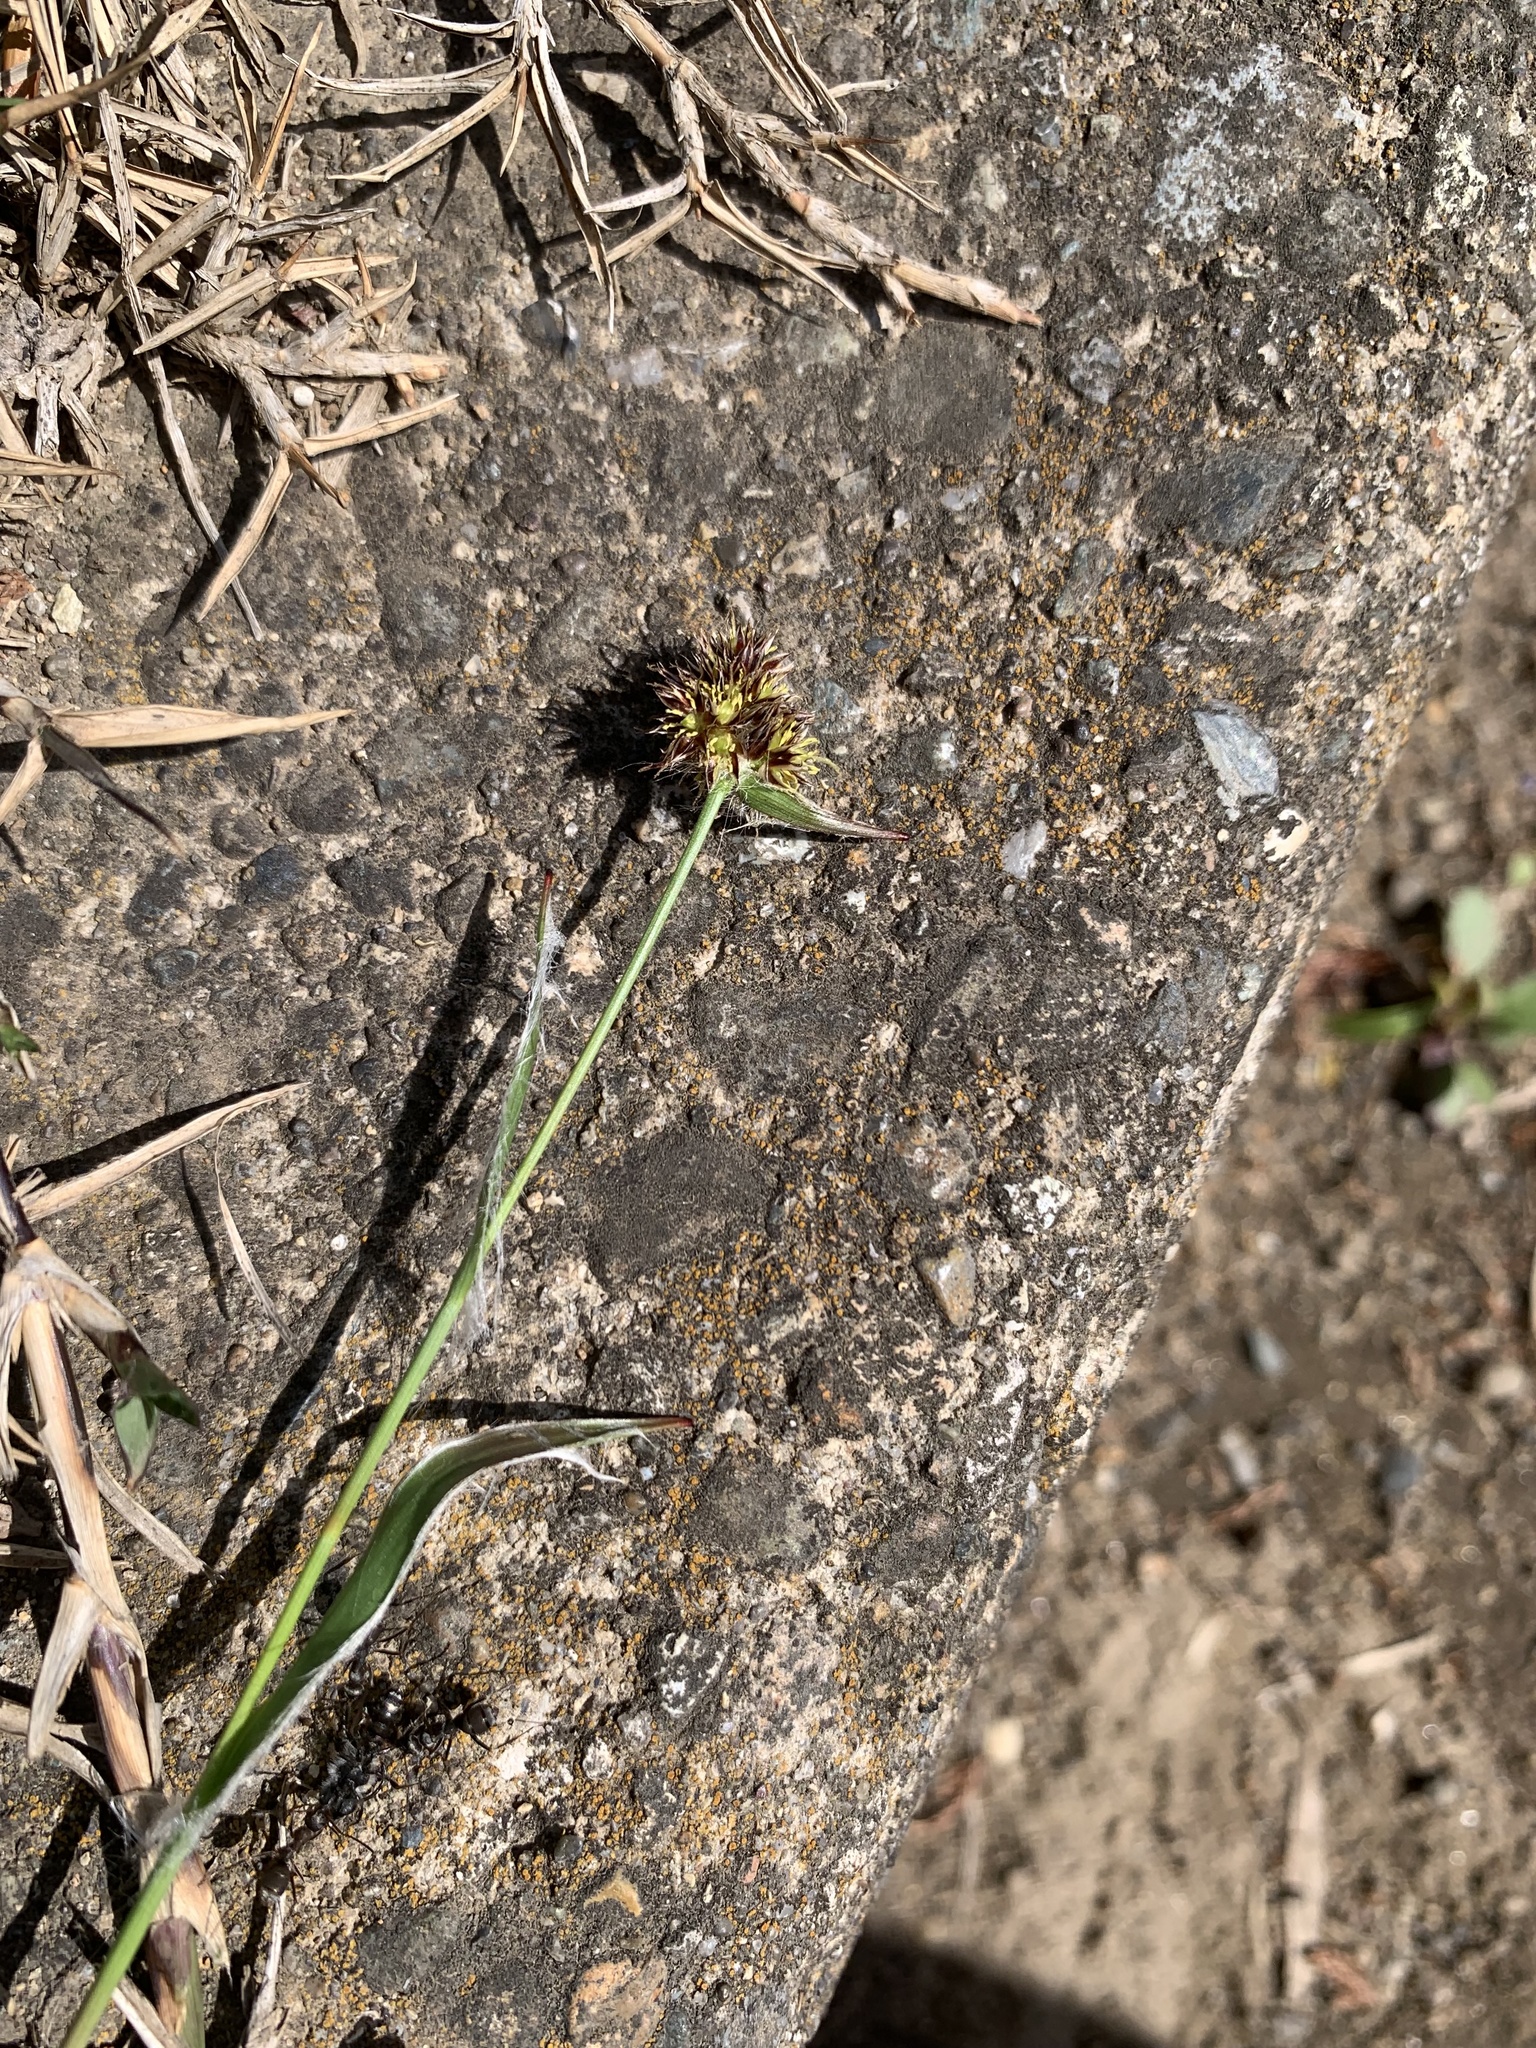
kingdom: Plantae
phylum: Tracheophyta
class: Liliopsida
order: Poales
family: Juncaceae
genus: Luzula
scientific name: Luzula capitata
